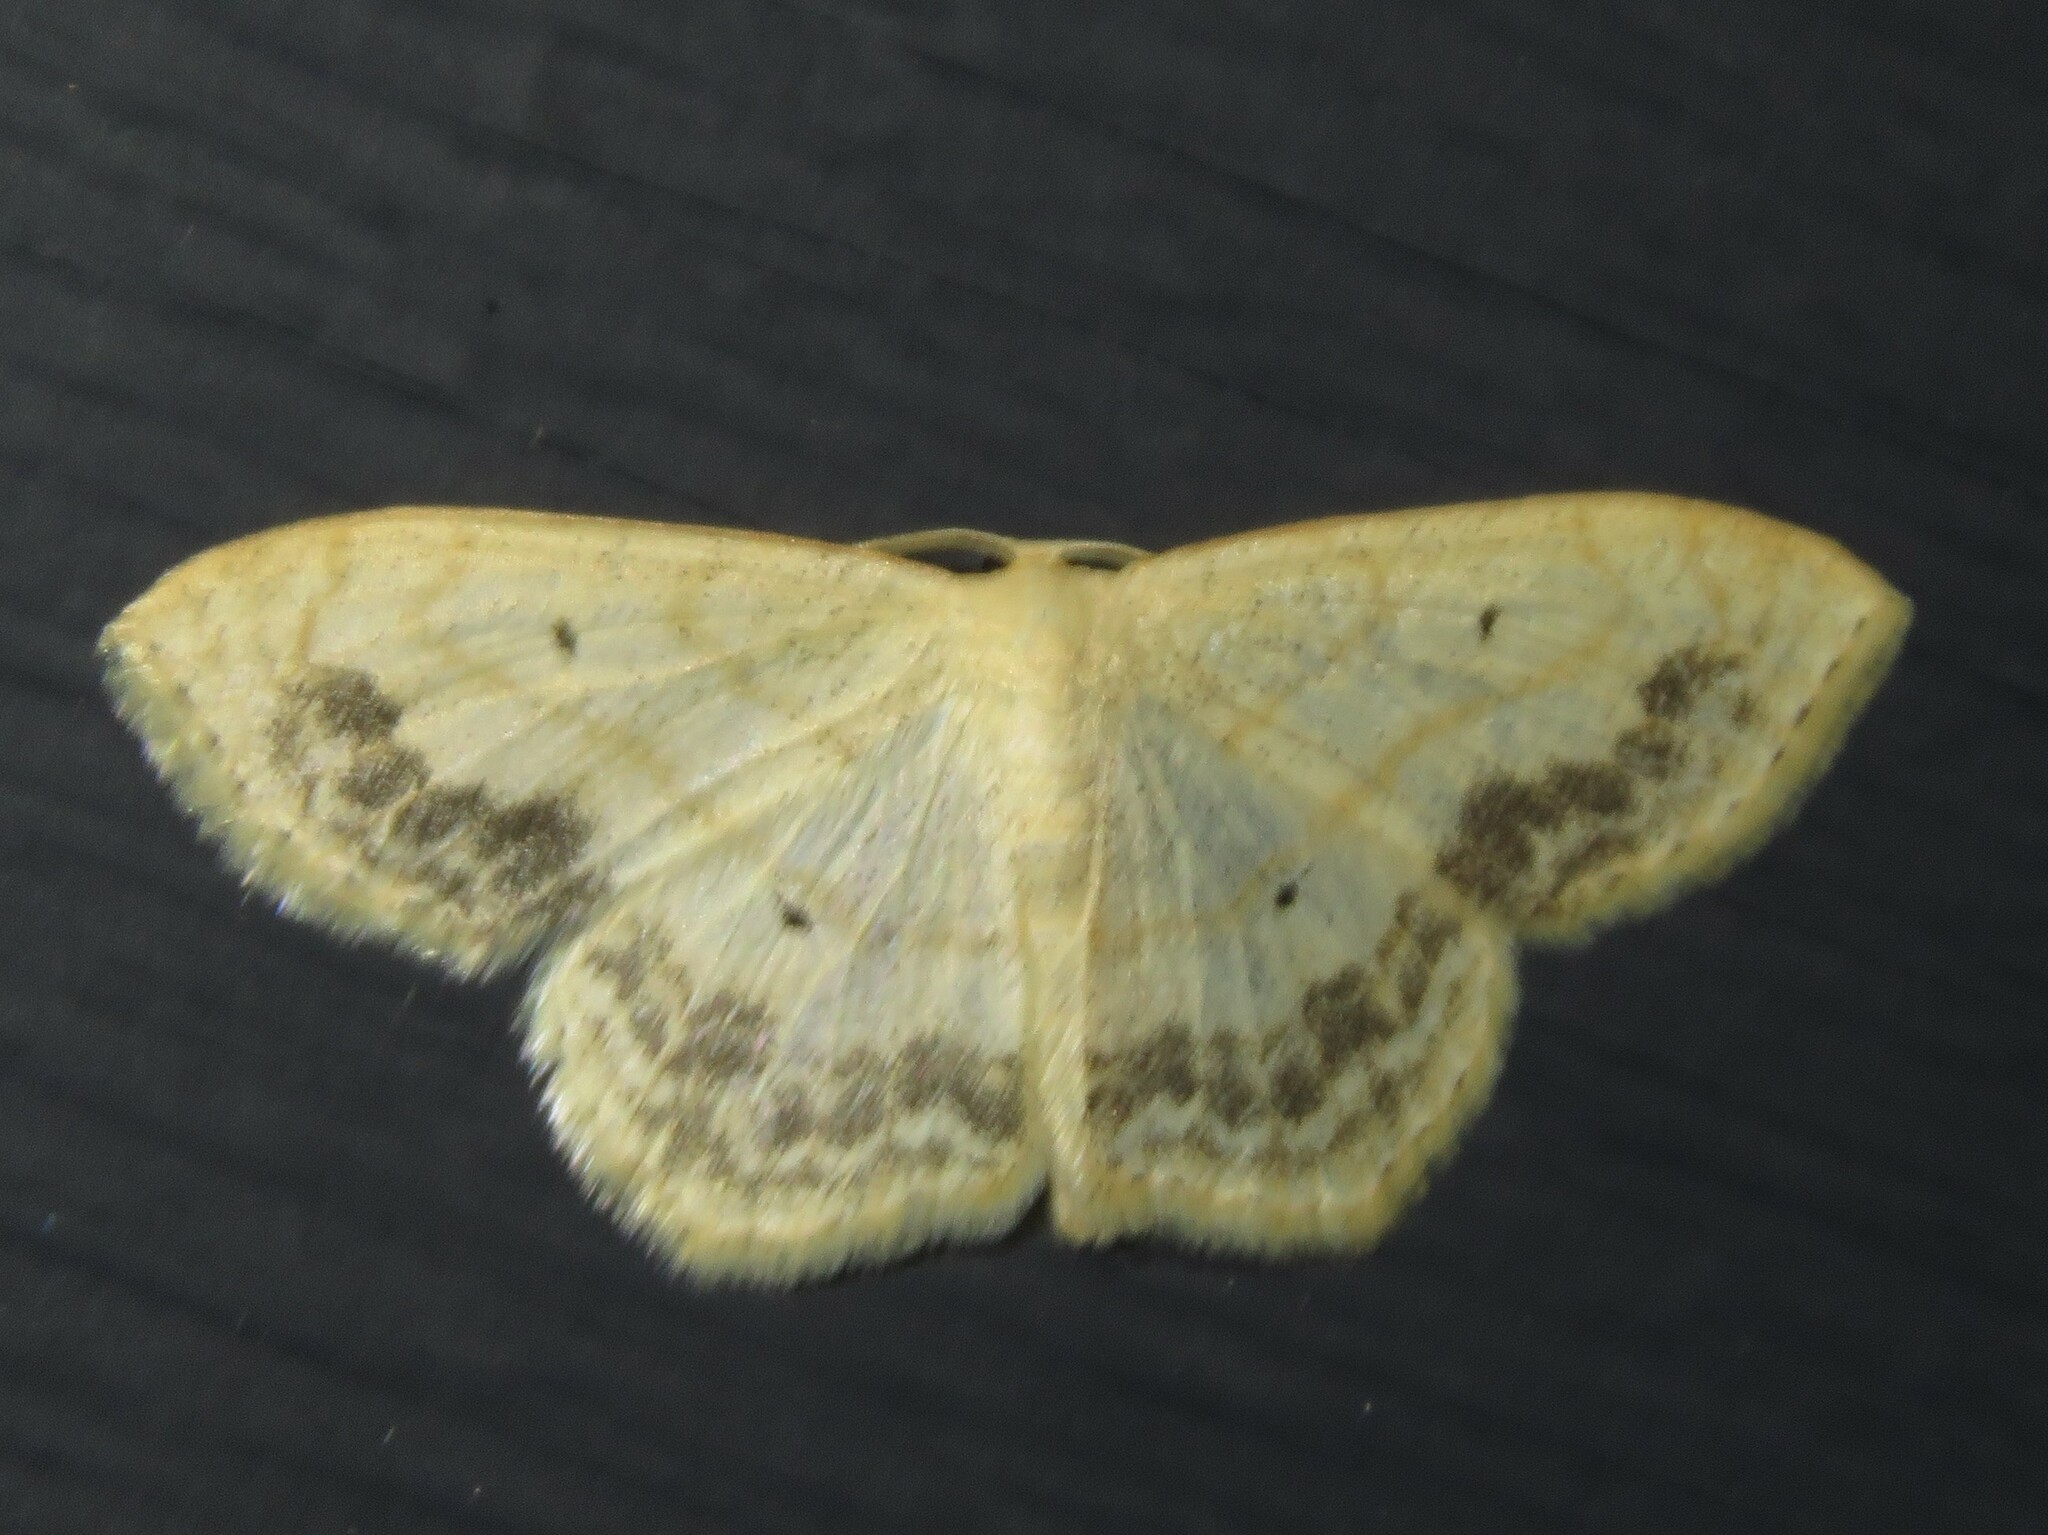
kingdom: Animalia
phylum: Arthropoda
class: Insecta
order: Lepidoptera
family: Geometridae
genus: Scopula
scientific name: Scopula limboundata
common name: Large lace border
